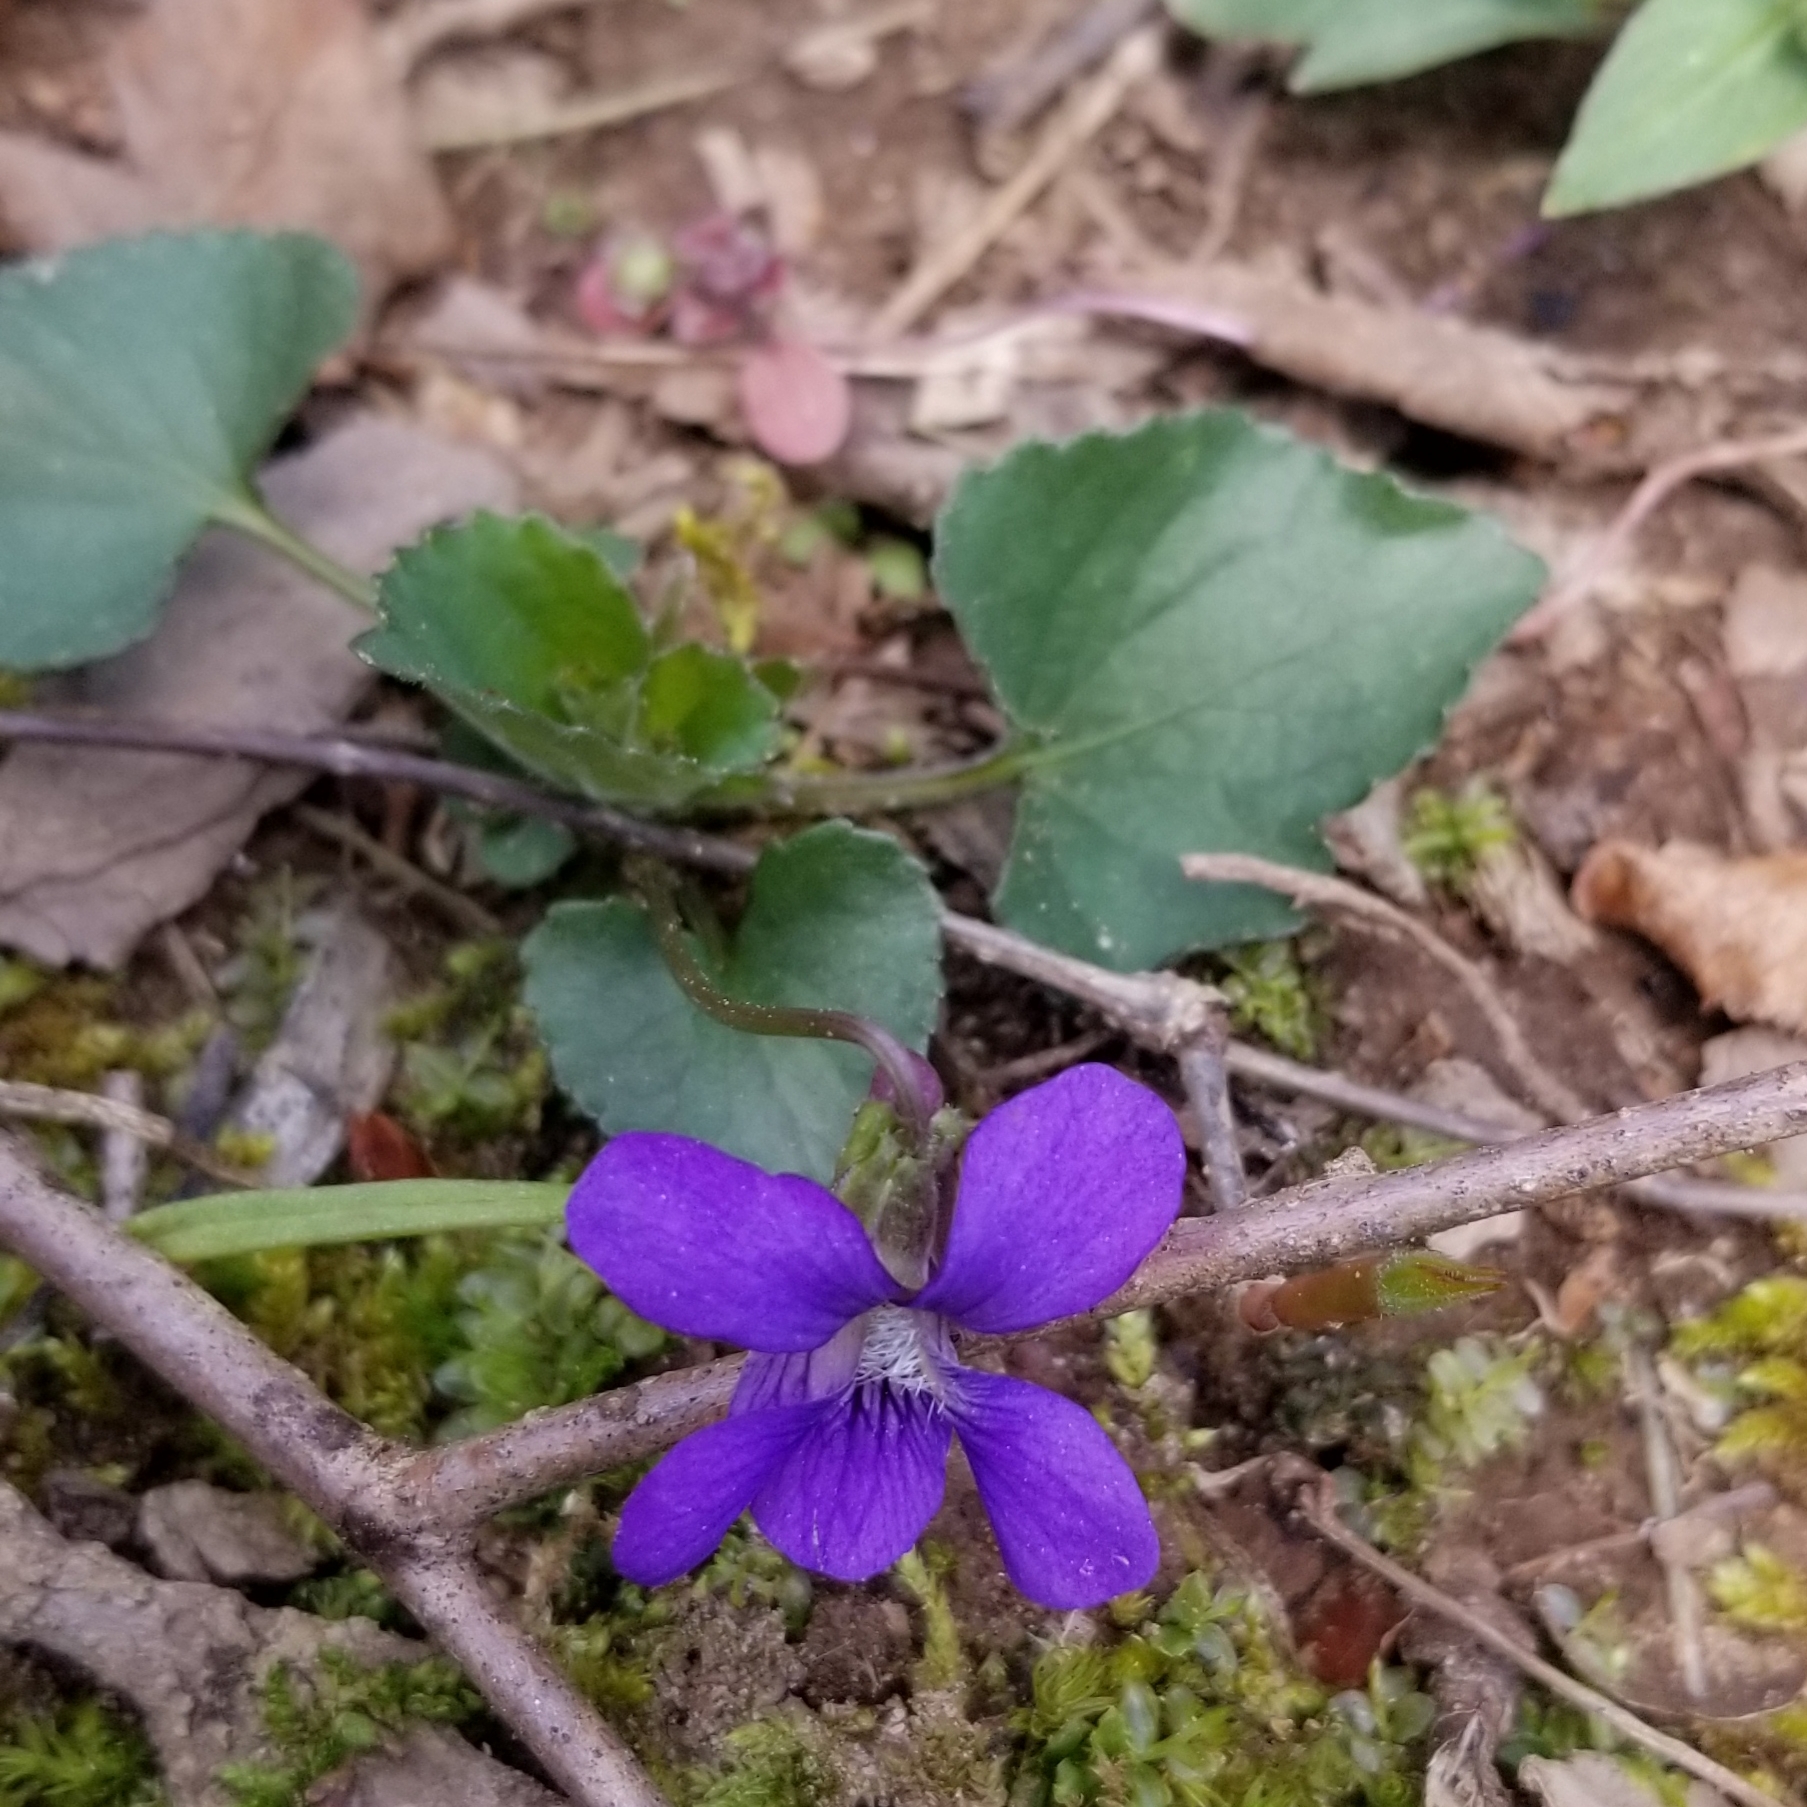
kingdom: Plantae
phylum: Tracheophyta
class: Magnoliopsida
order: Malpighiales
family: Violaceae
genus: Viola
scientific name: Viola sororia
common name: Dooryard violet
